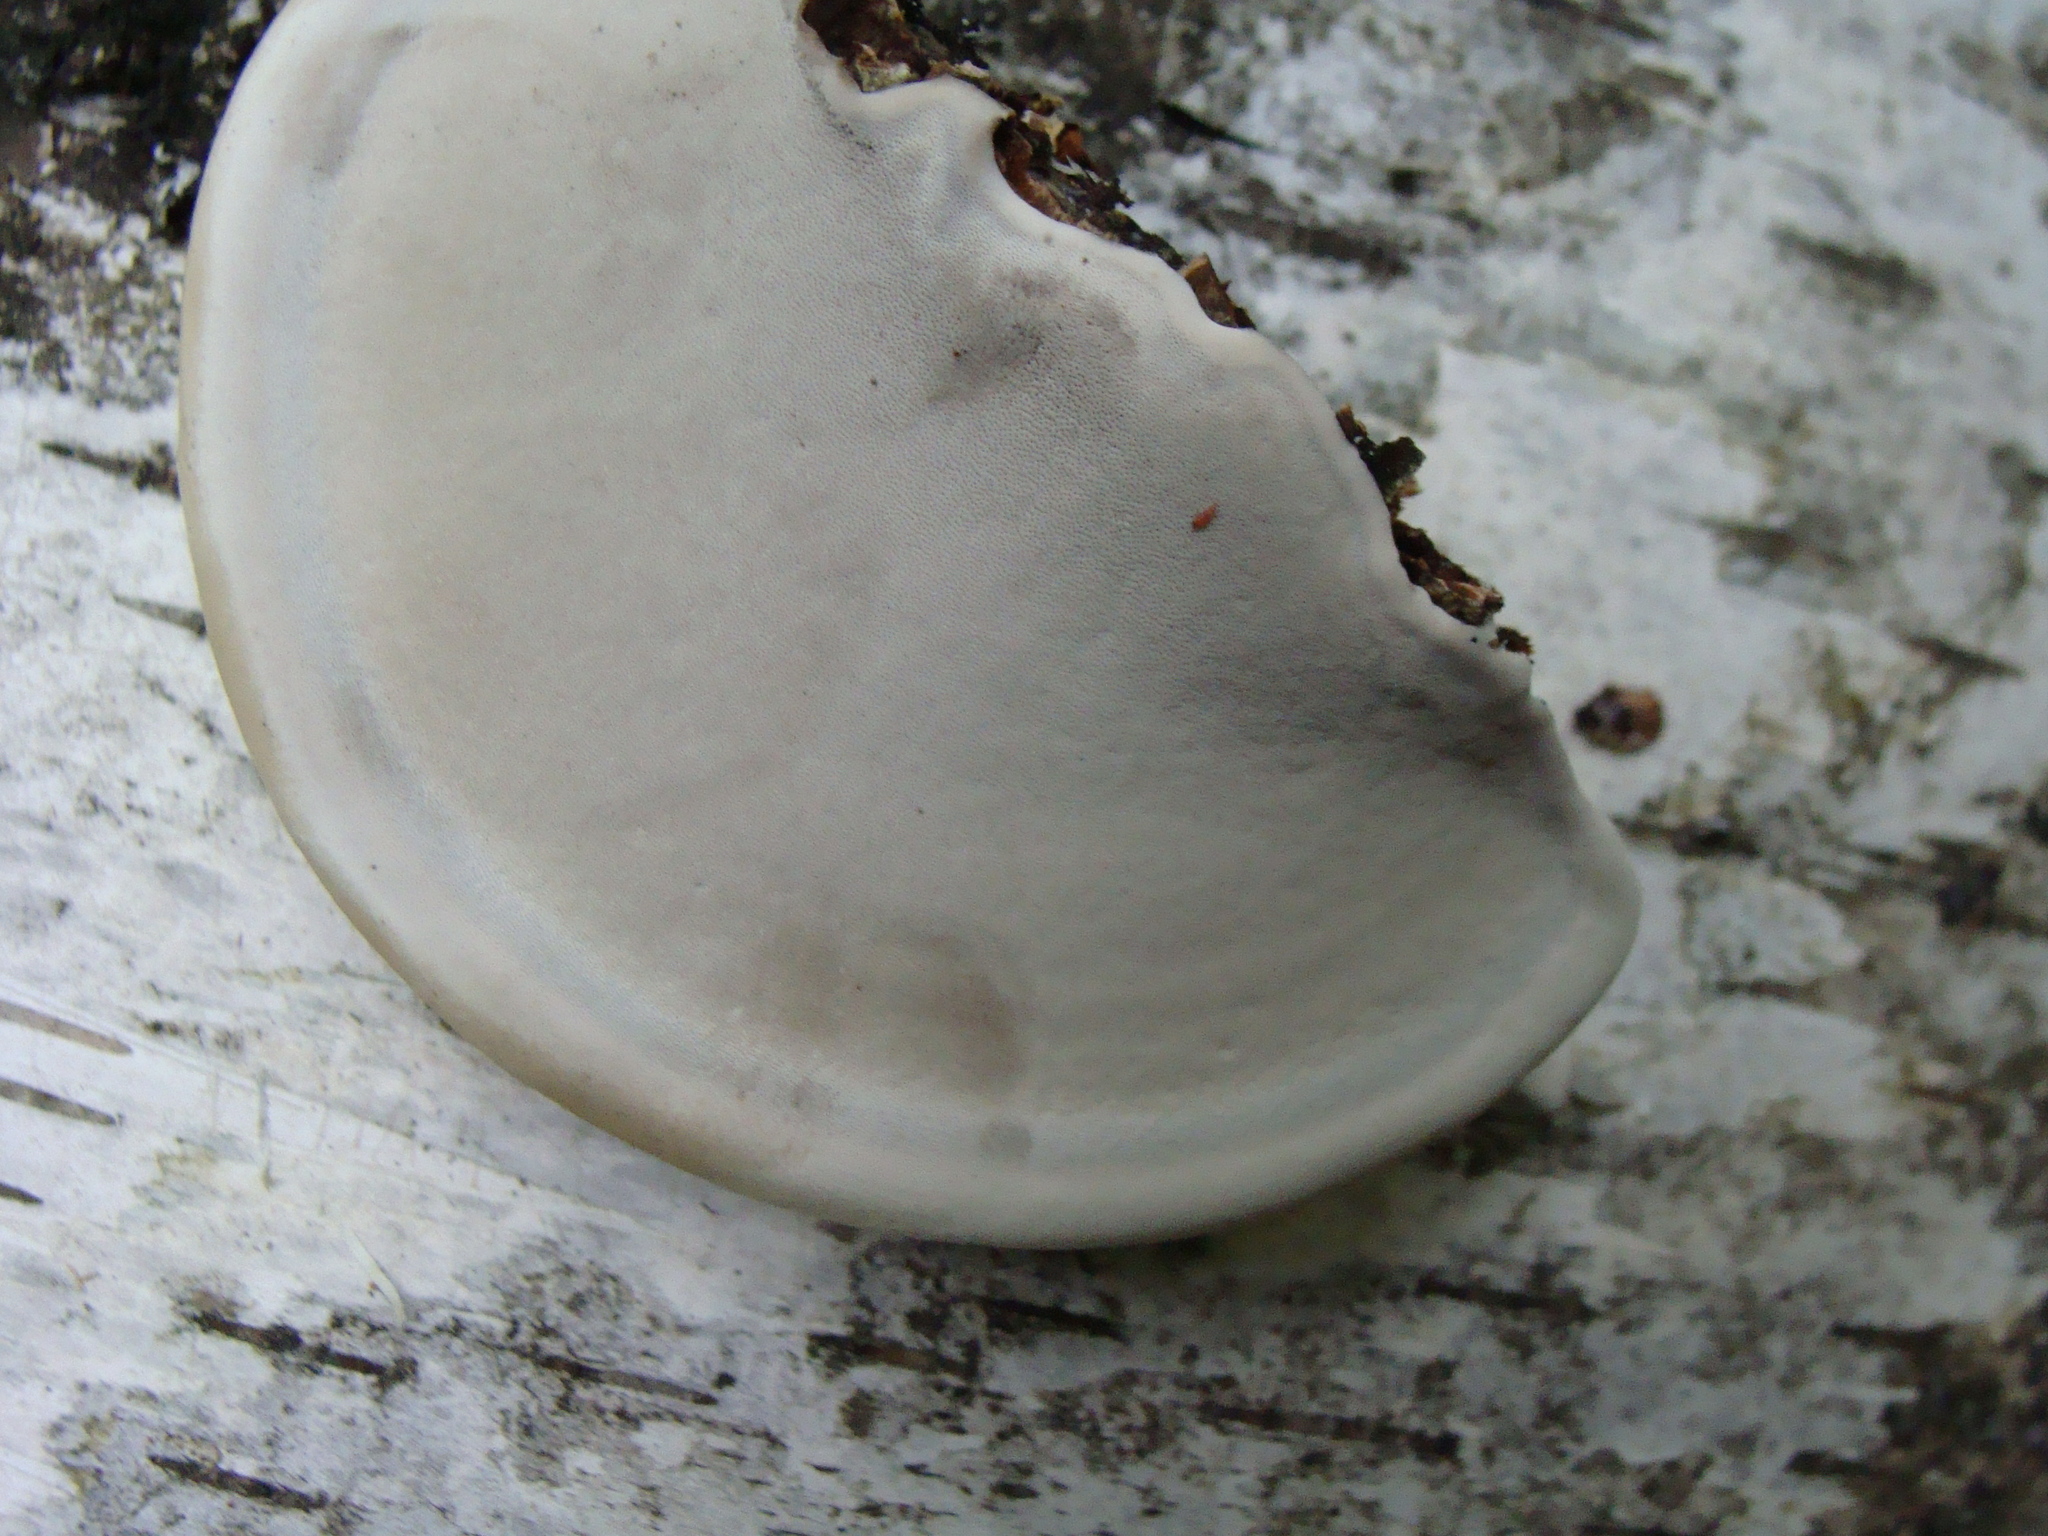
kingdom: Fungi
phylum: Basidiomycota
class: Agaricomycetes
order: Polyporales
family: Polyporaceae
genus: Ganoderma
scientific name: Ganoderma applanatum
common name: Artist's bracket
